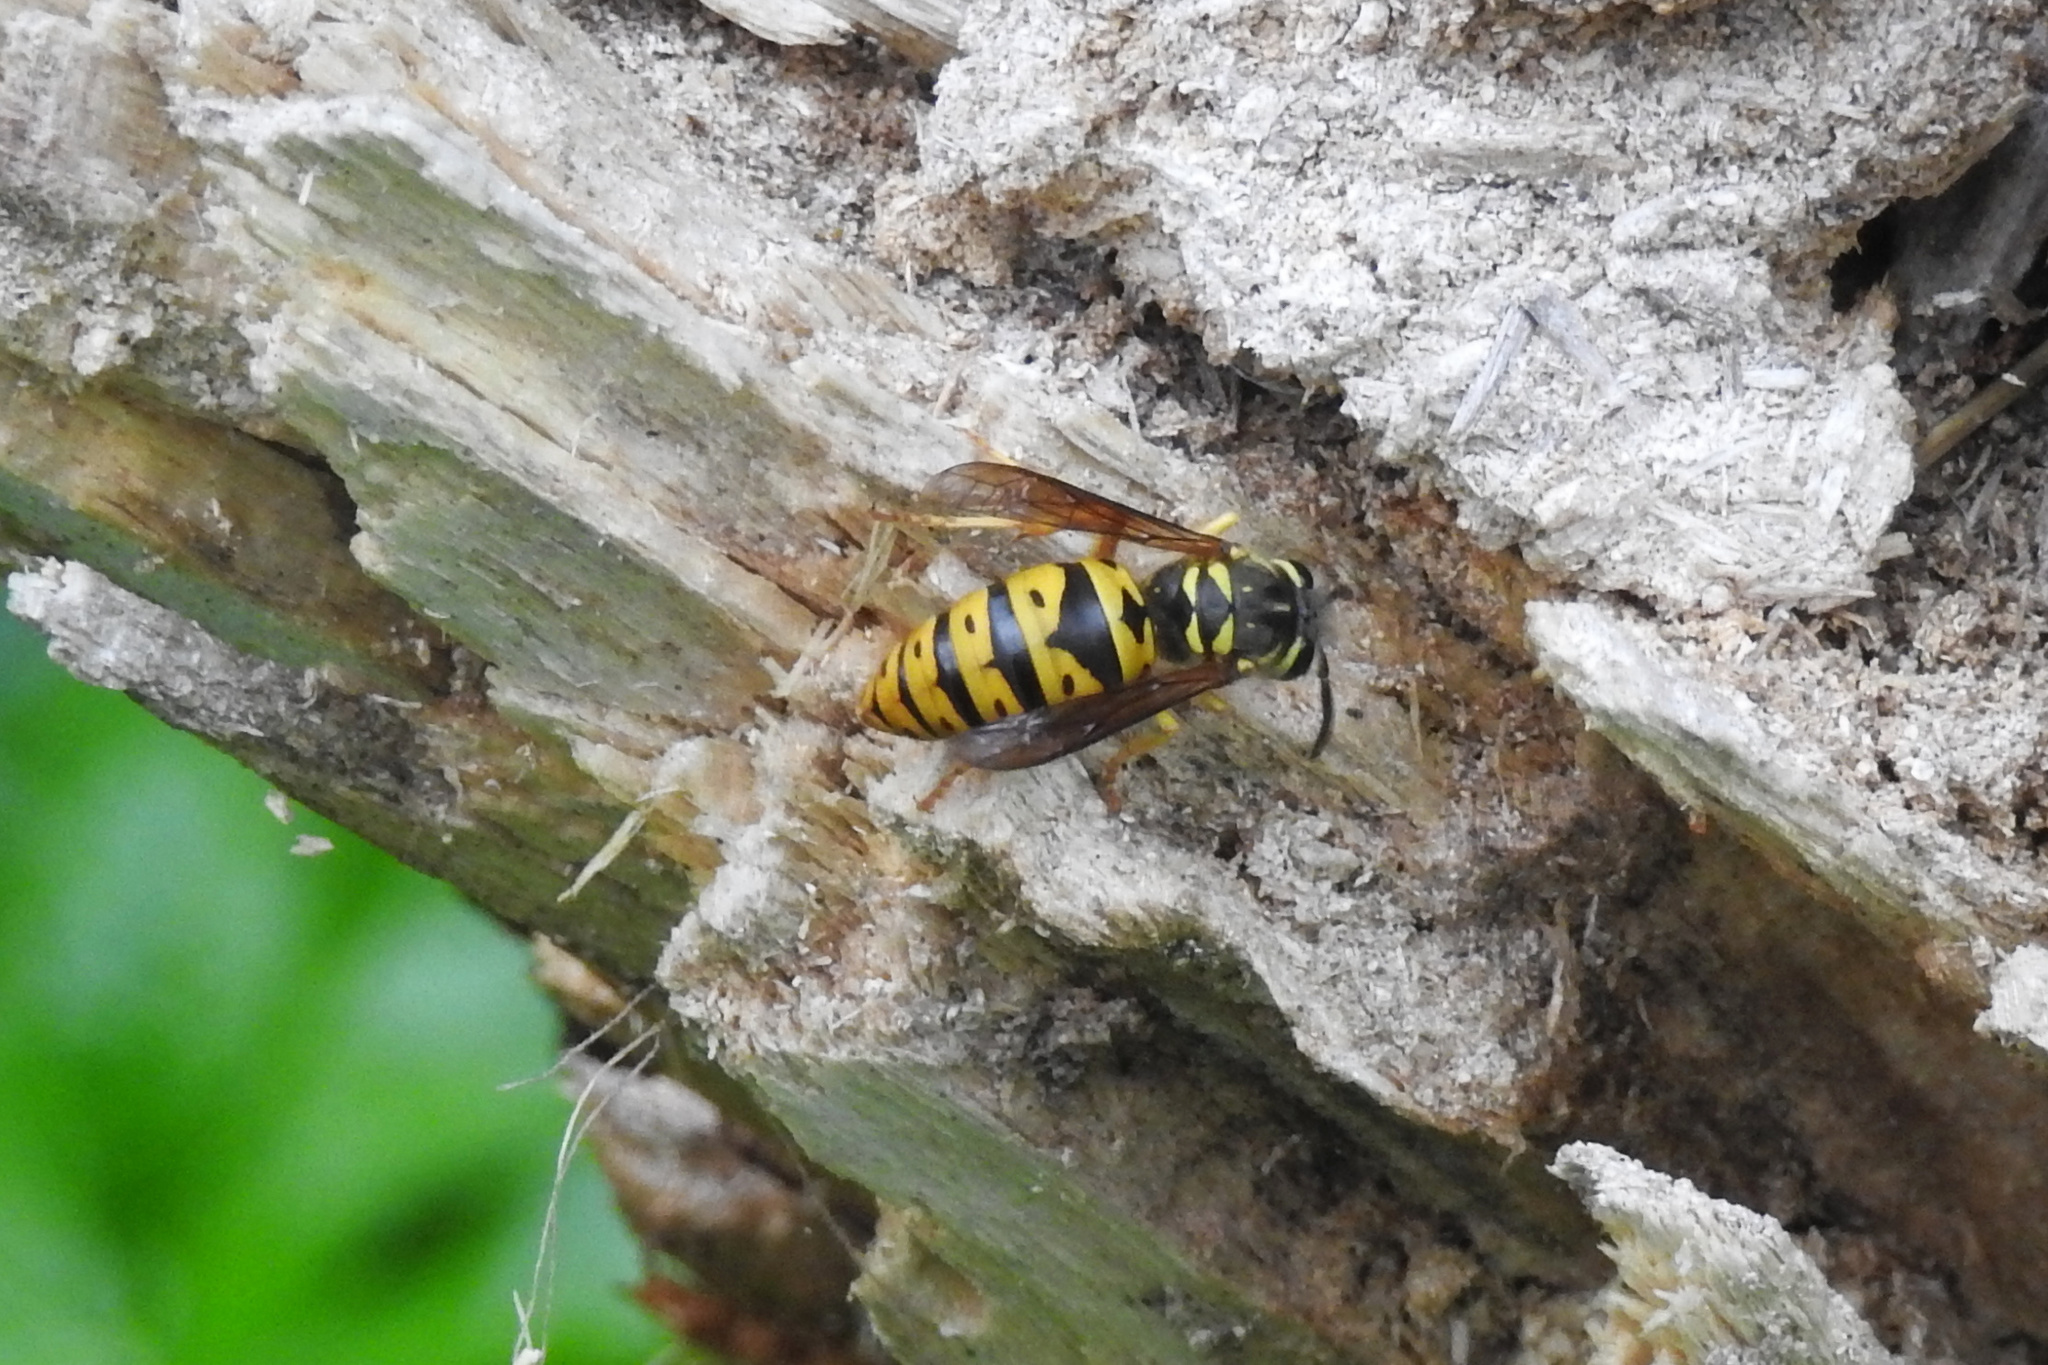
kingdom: Animalia
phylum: Arthropoda
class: Insecta
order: Hymenoptera
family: Vespidae
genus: Vespula
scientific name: Vespula maculifrons
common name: Eastern yellowjacket
